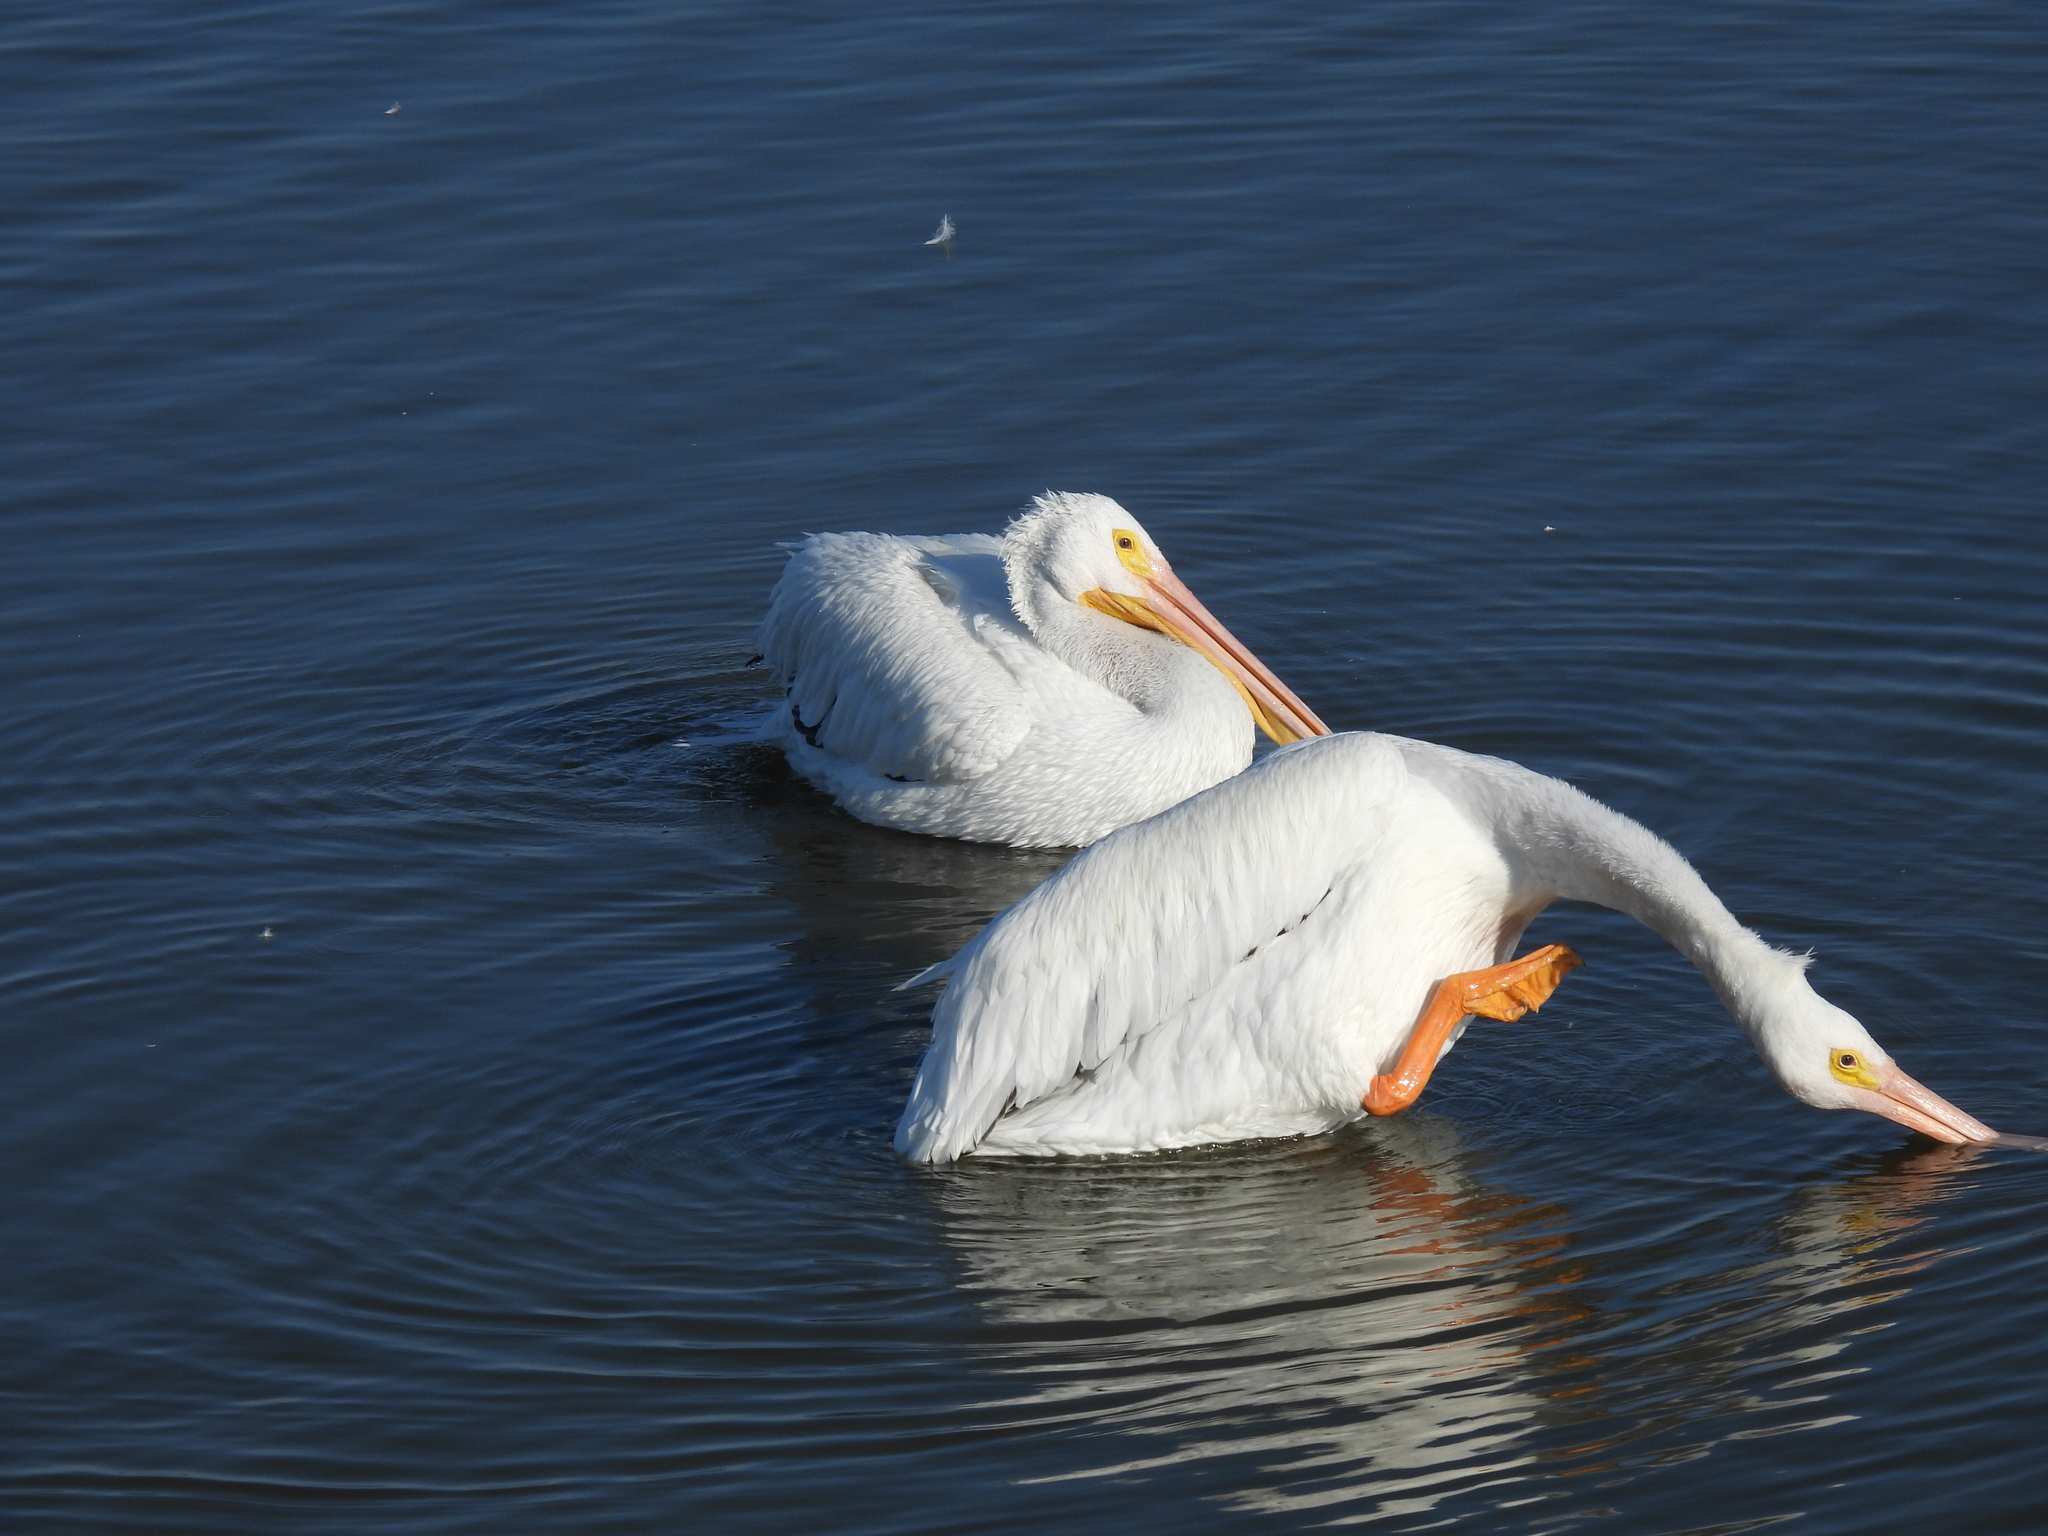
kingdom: Animalia
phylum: Chordata
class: Aves
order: Pelecaniformes
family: Pelecanidae
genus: Pelecanus
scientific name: Pelecanus erythrorhynchos
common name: American white pelican
